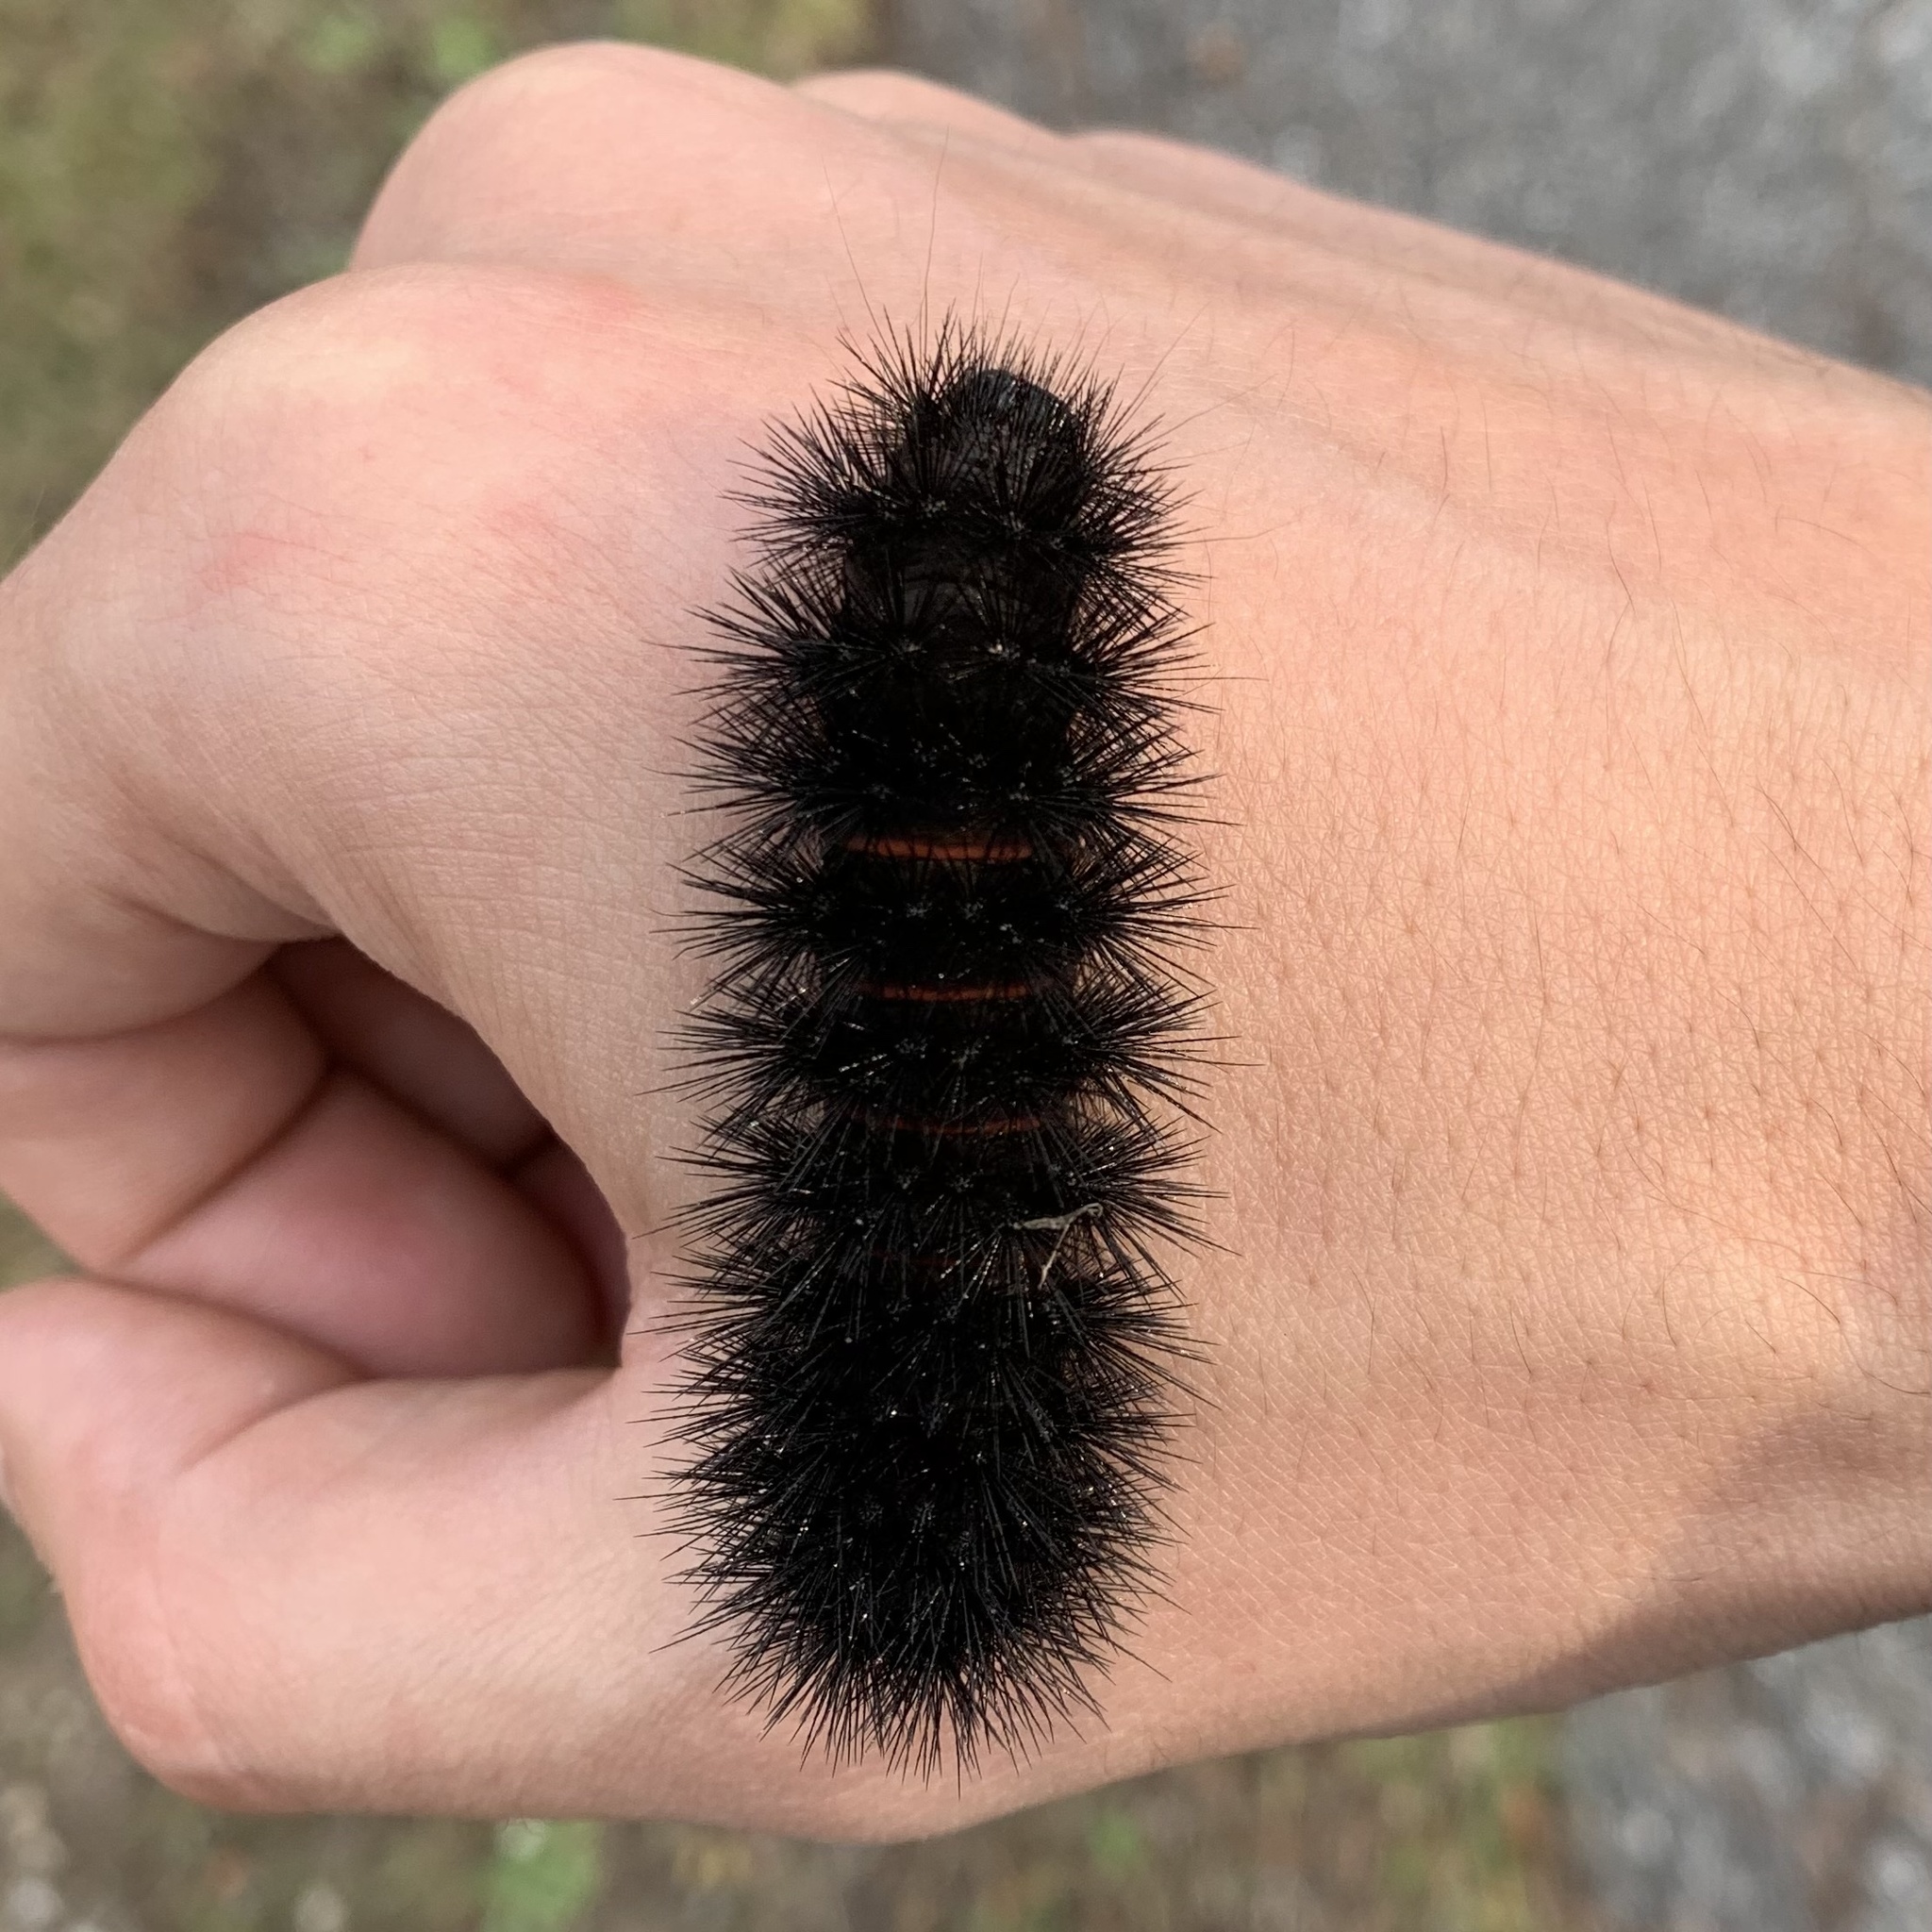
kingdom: Animalia
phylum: Arthropoda
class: Insecta
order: Lepidoptera
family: Erebidae
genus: Hypercompe
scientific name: Hypercompe scribonia
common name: Giant leopard moth
